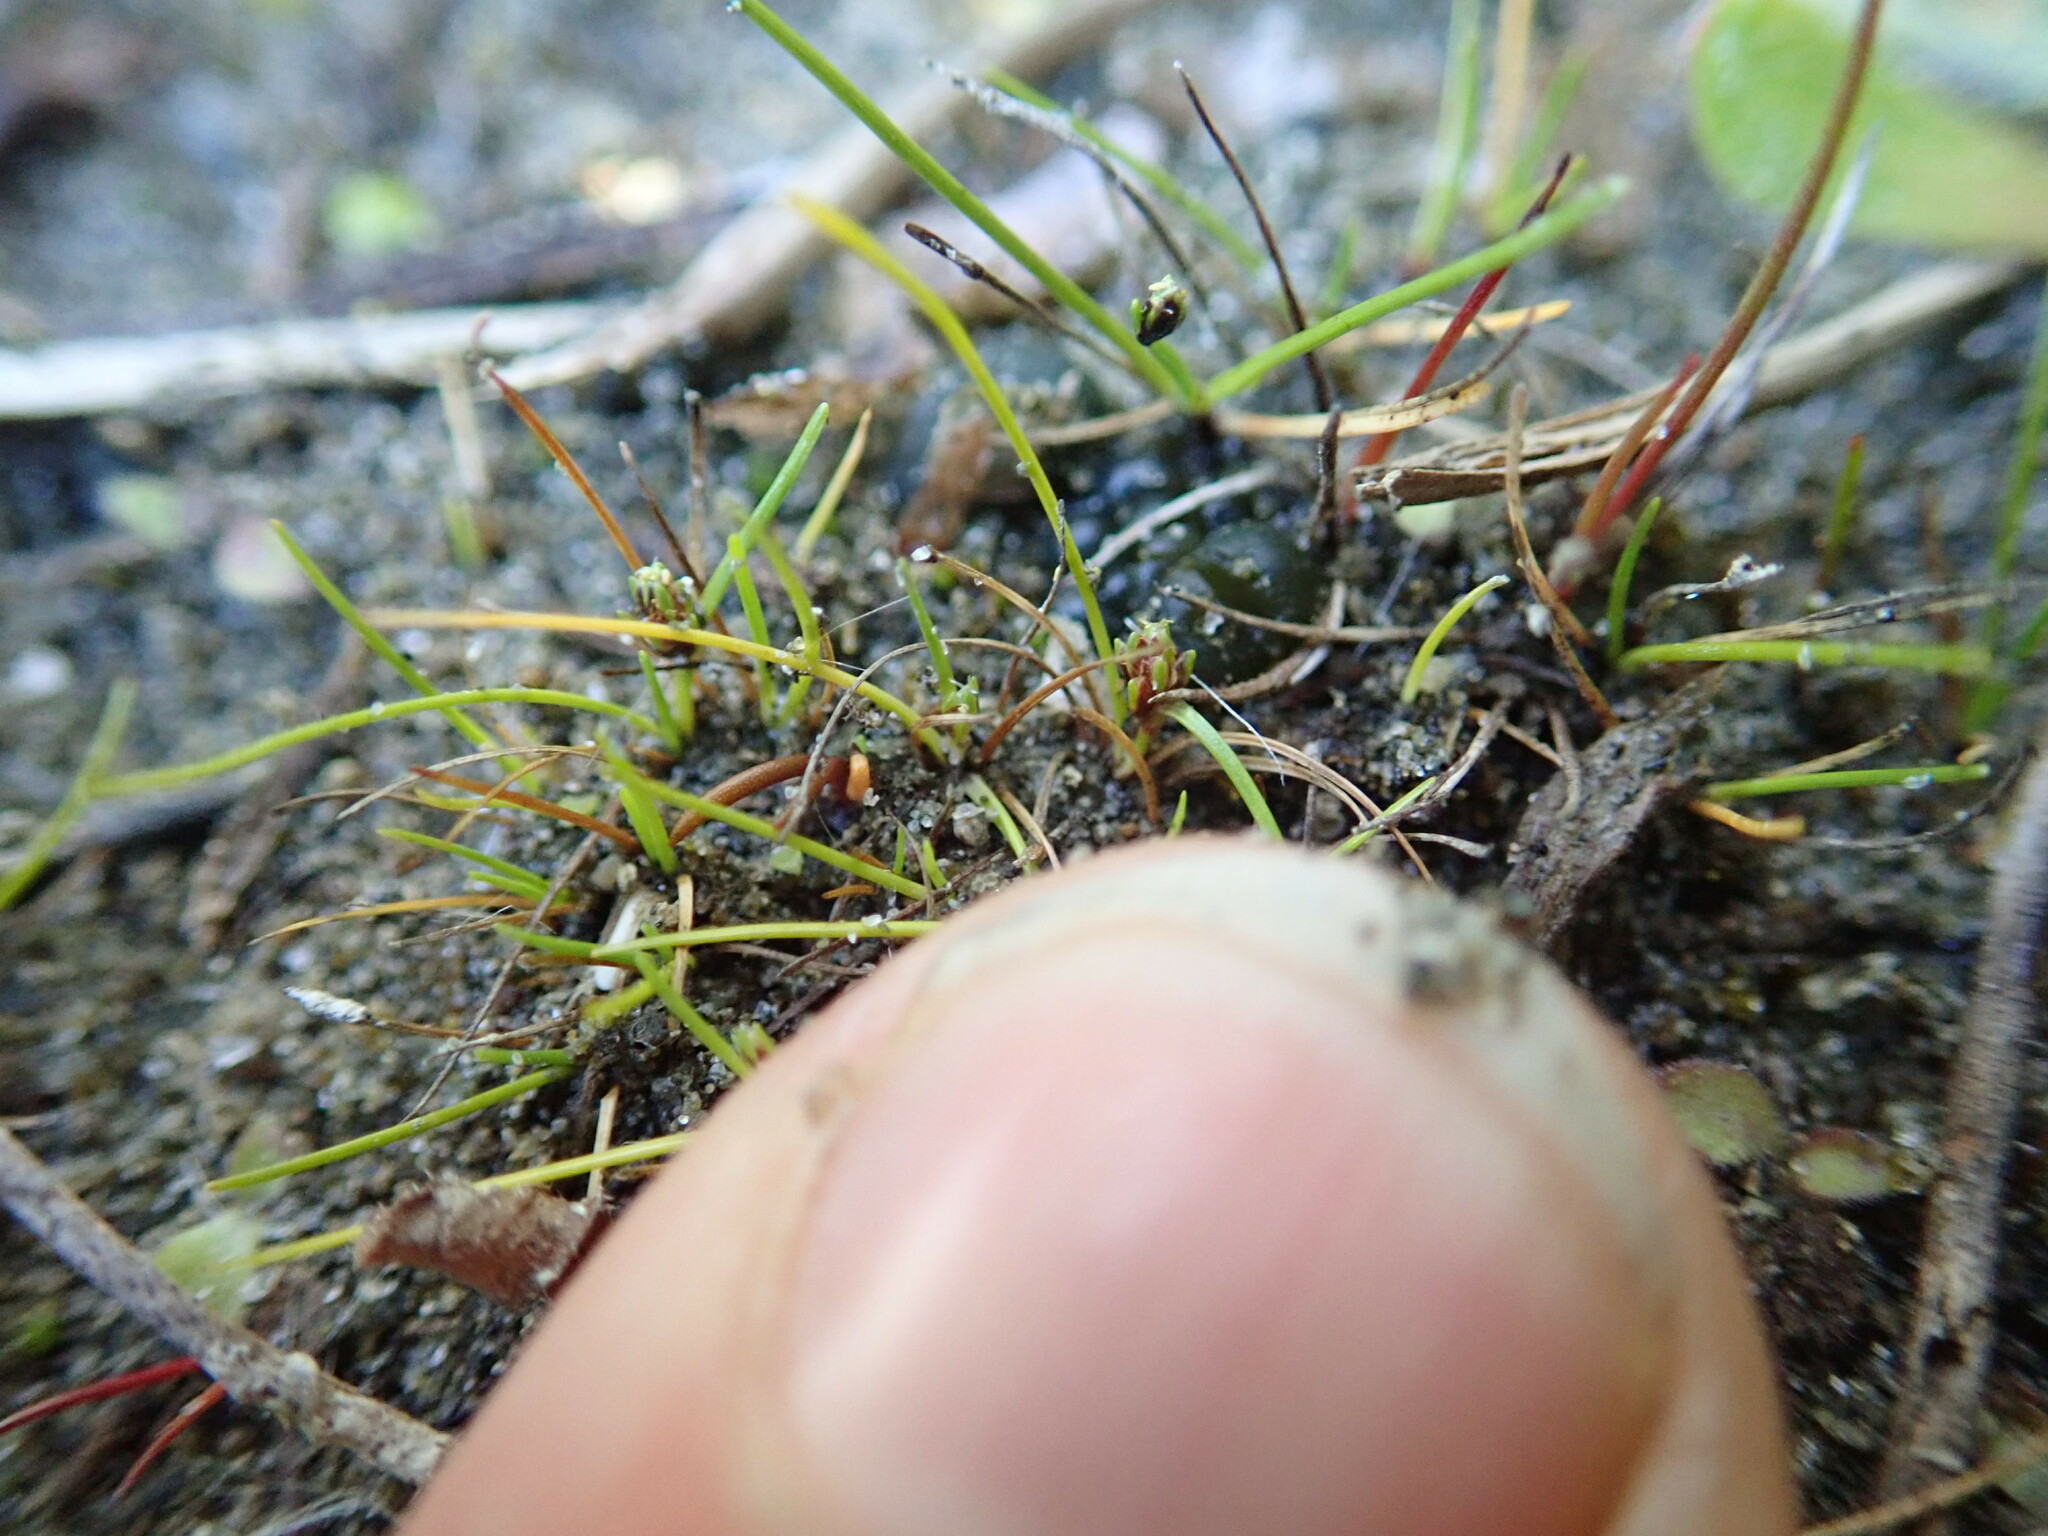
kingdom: Plantae
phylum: Tracheophyta
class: Liliopsida
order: Poales
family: Cyperaceae
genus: Isolepis
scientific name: Isolepis basilaris
